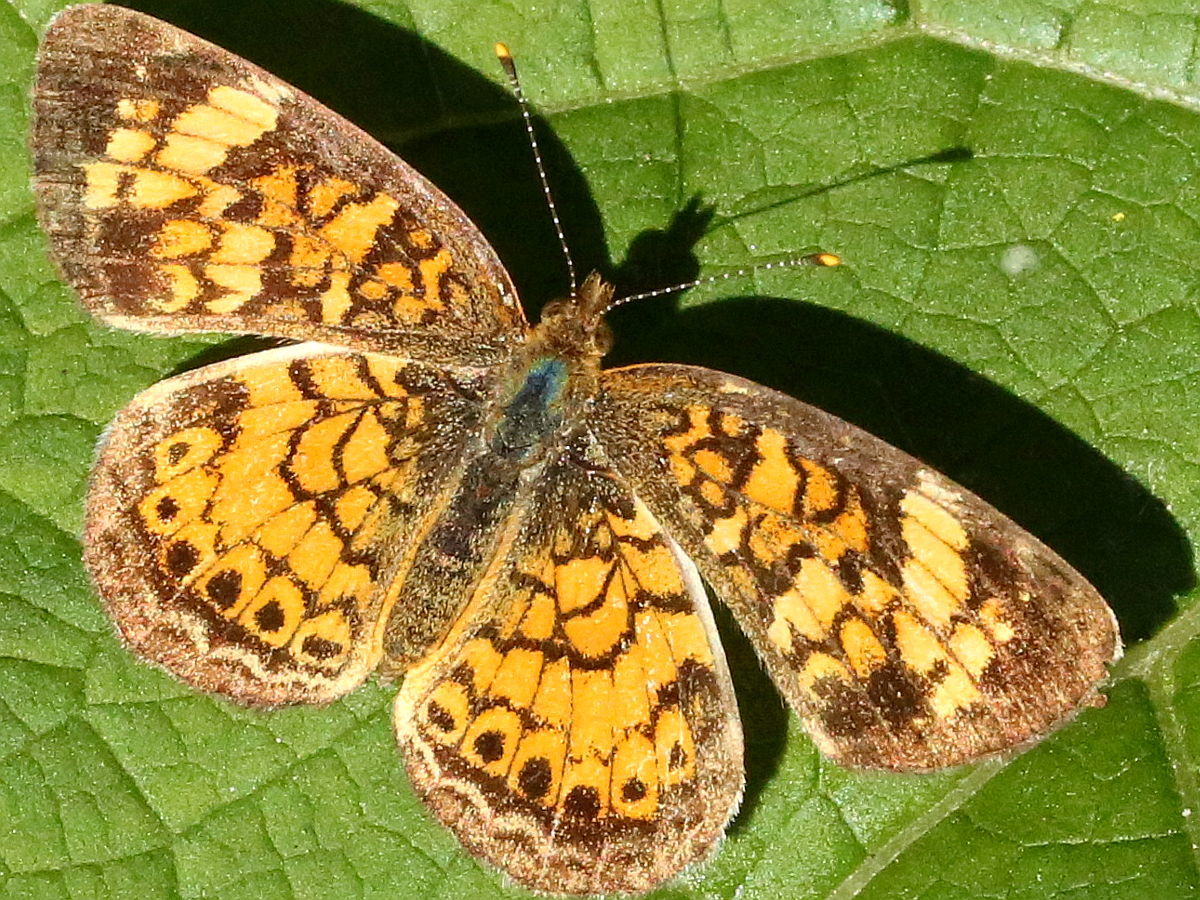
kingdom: Animalia
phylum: Arthropoda
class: Insecta
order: Lepidoptera
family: Nymphalidae
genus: Phyciodes
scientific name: Phyciodes tharos
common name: Pearl crescent
